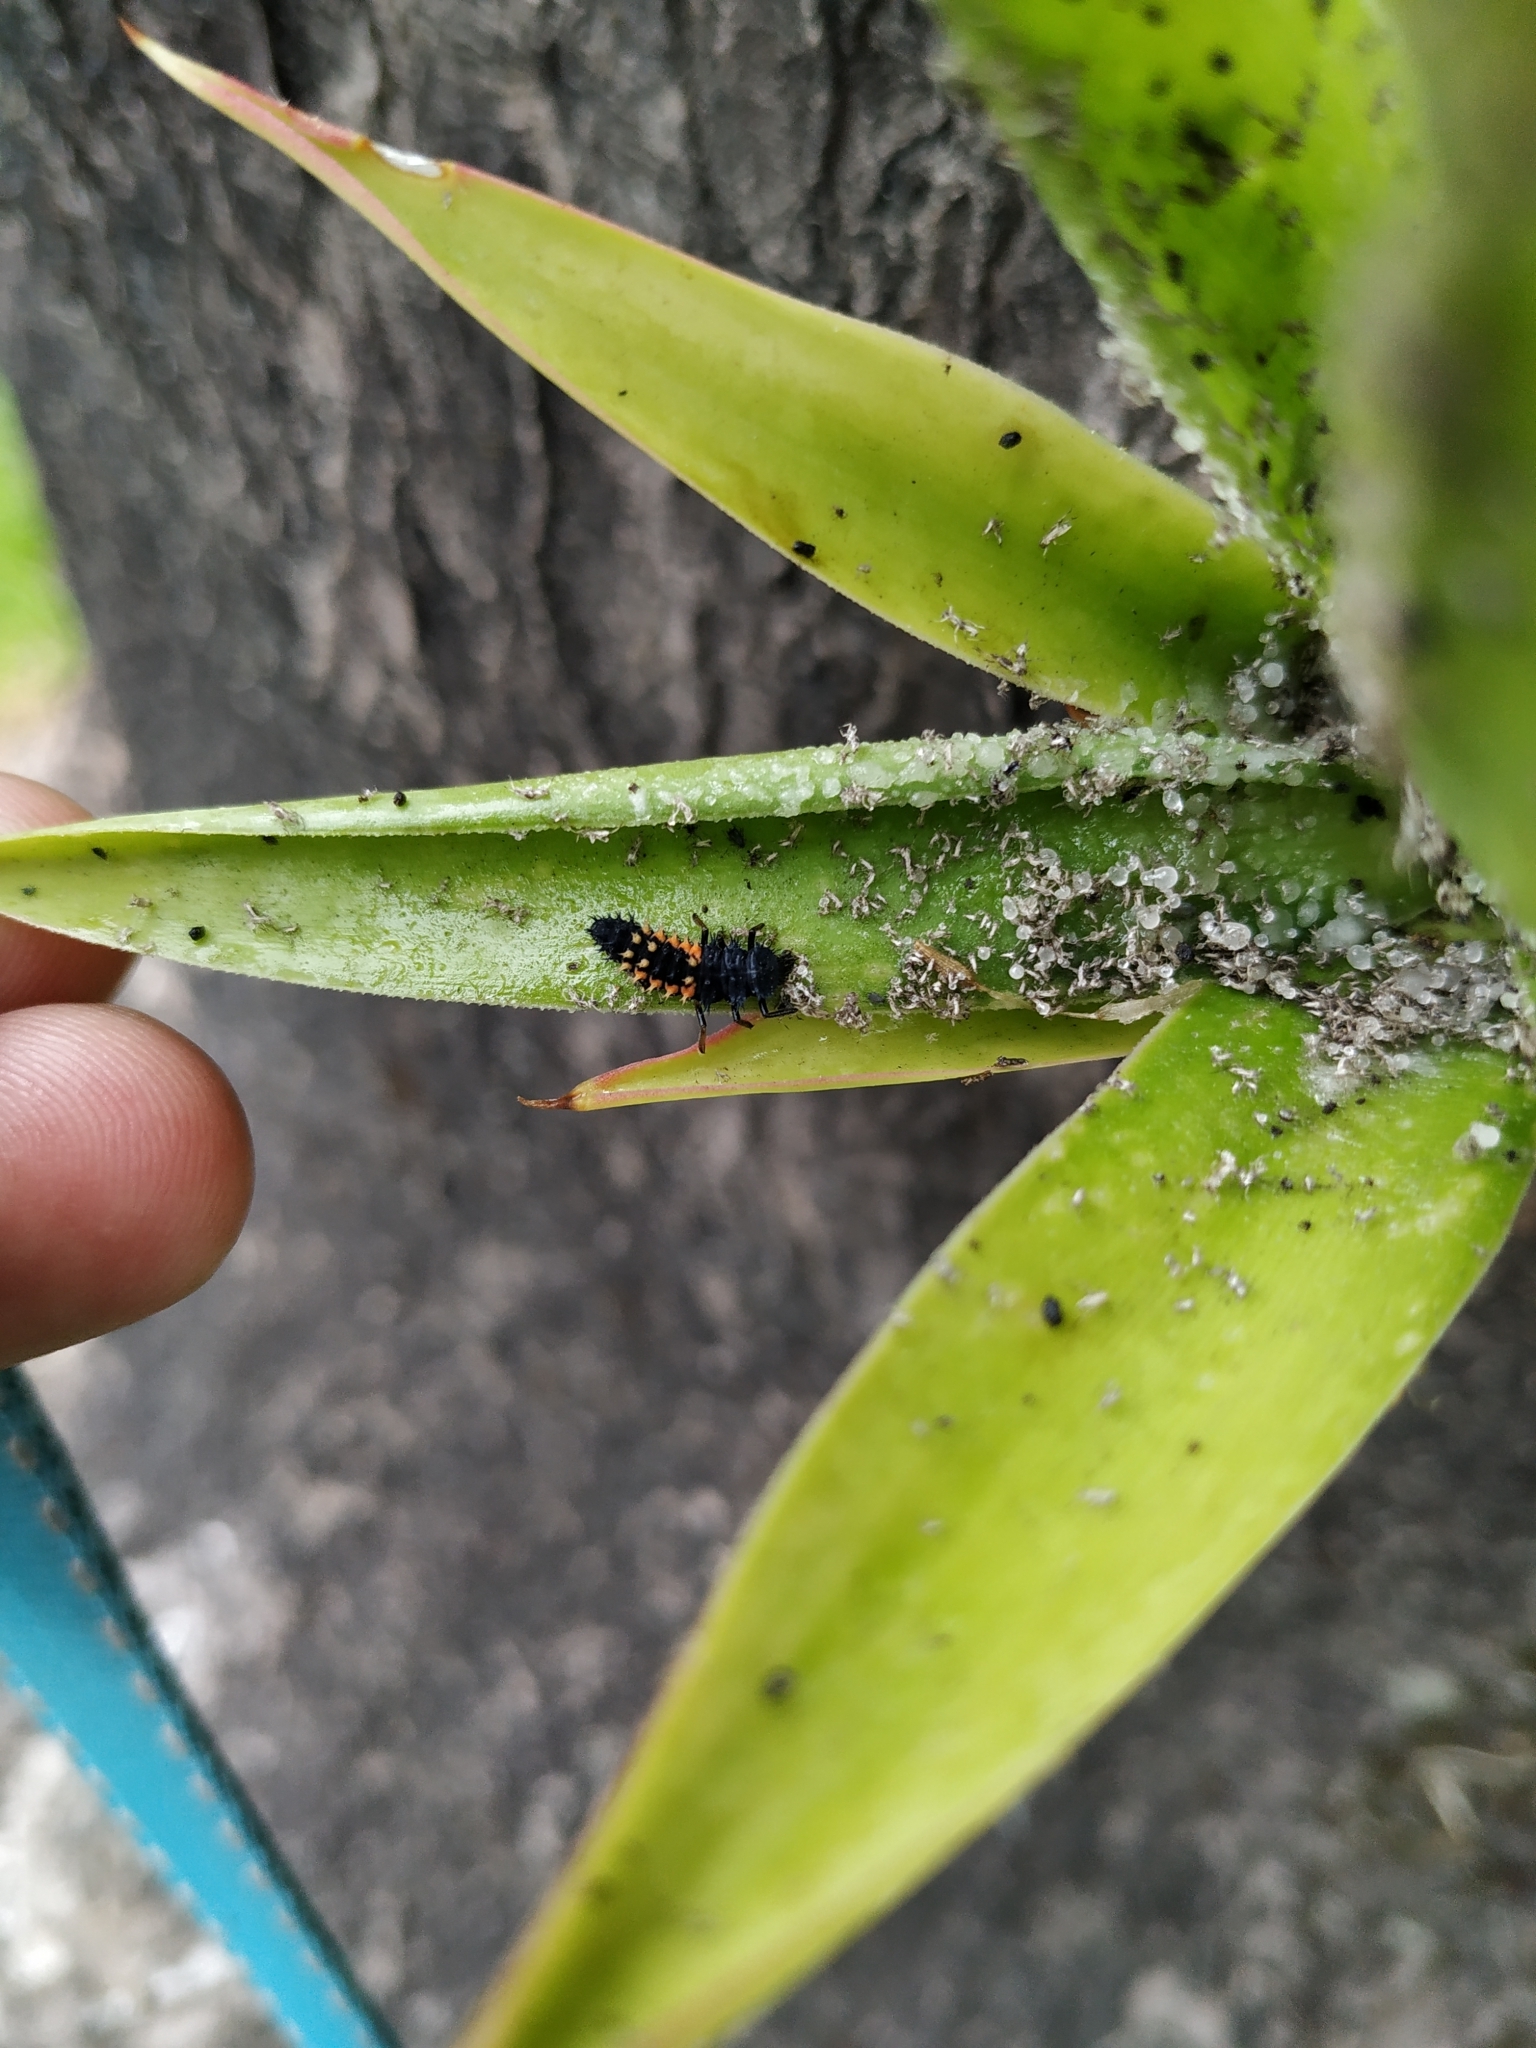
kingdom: Animalia
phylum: Arthropoda
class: Insecta
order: Coleoptera
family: Coccinellidae
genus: Harmonia
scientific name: Harmonia axyridis
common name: Harlequin ladybird
